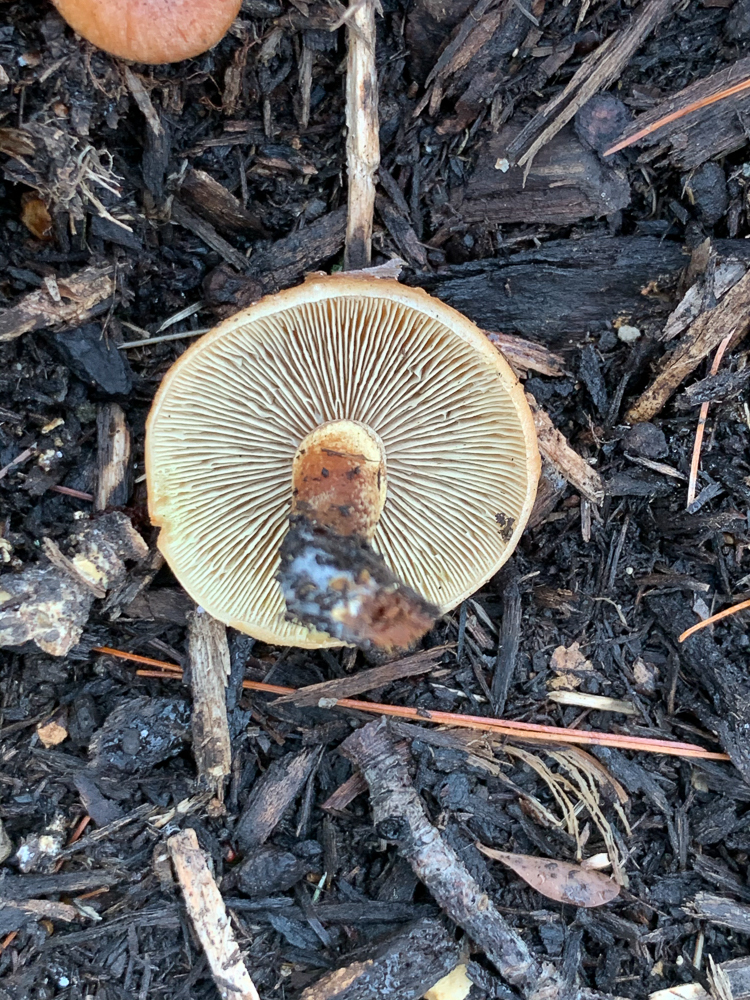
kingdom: Fungi
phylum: Basidiomycota
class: Agaricomycetes
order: Agaricales
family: Strophariaceae
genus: Hypholoma
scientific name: Hypholoma lateritium
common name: Brick caps
